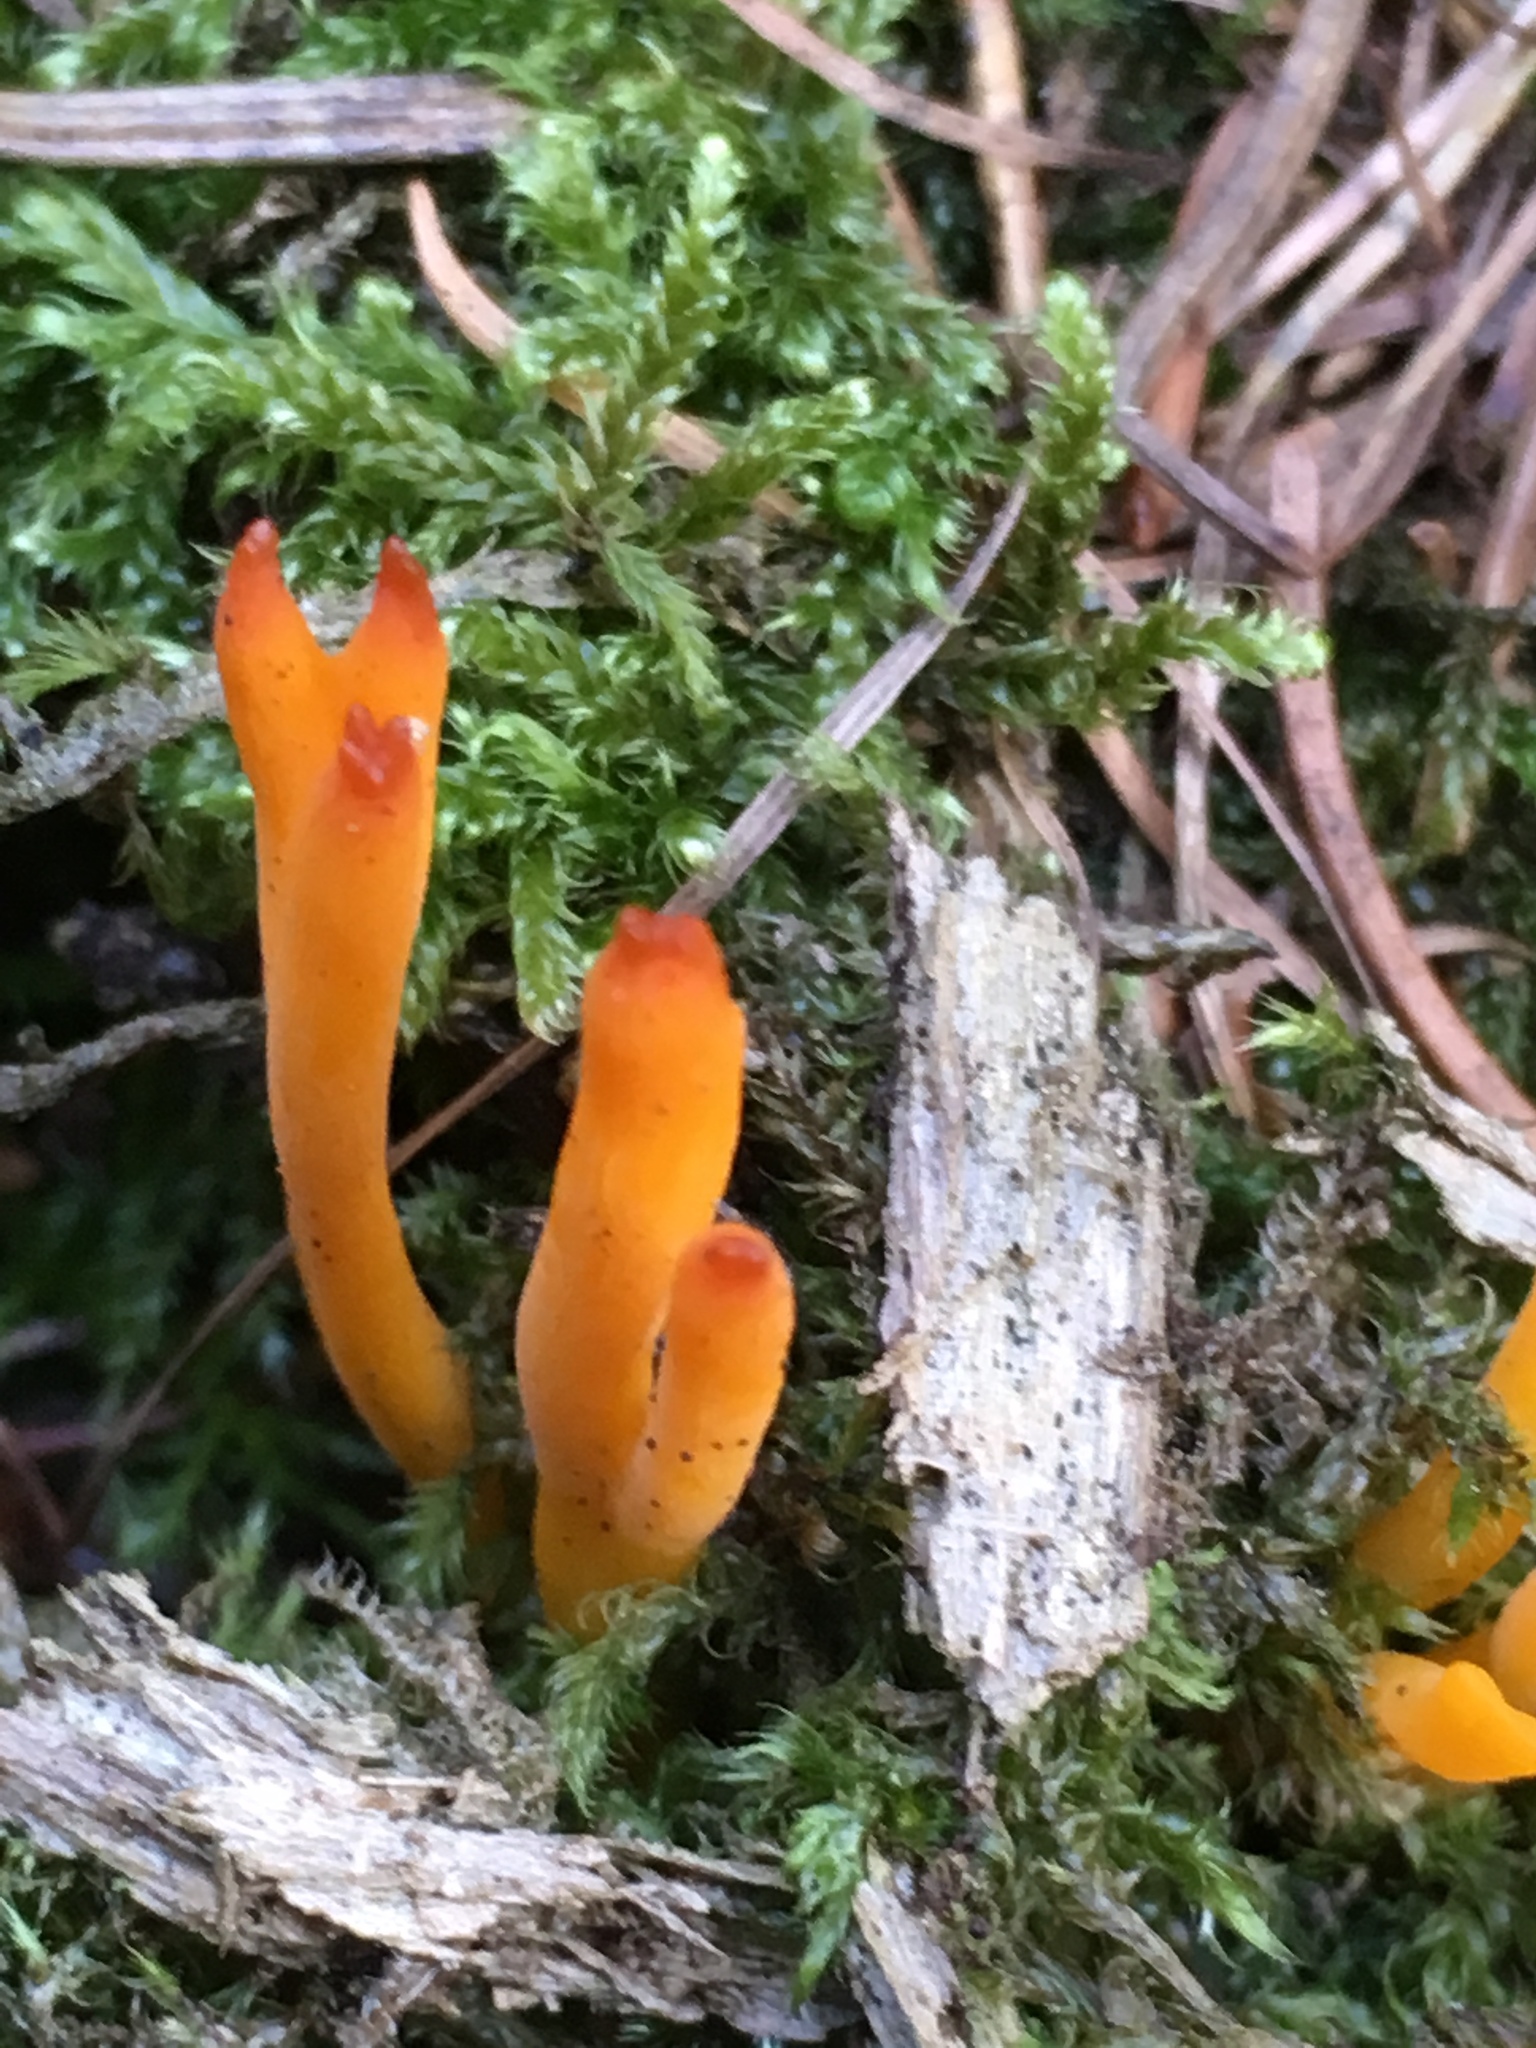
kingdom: Fungi
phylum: Basidiomycota
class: Dacrymycetes
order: Dacrymycetales
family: Dacrymycetaceae
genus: Calocera
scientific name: Calocera viscosa
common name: Yellow stagshorn
